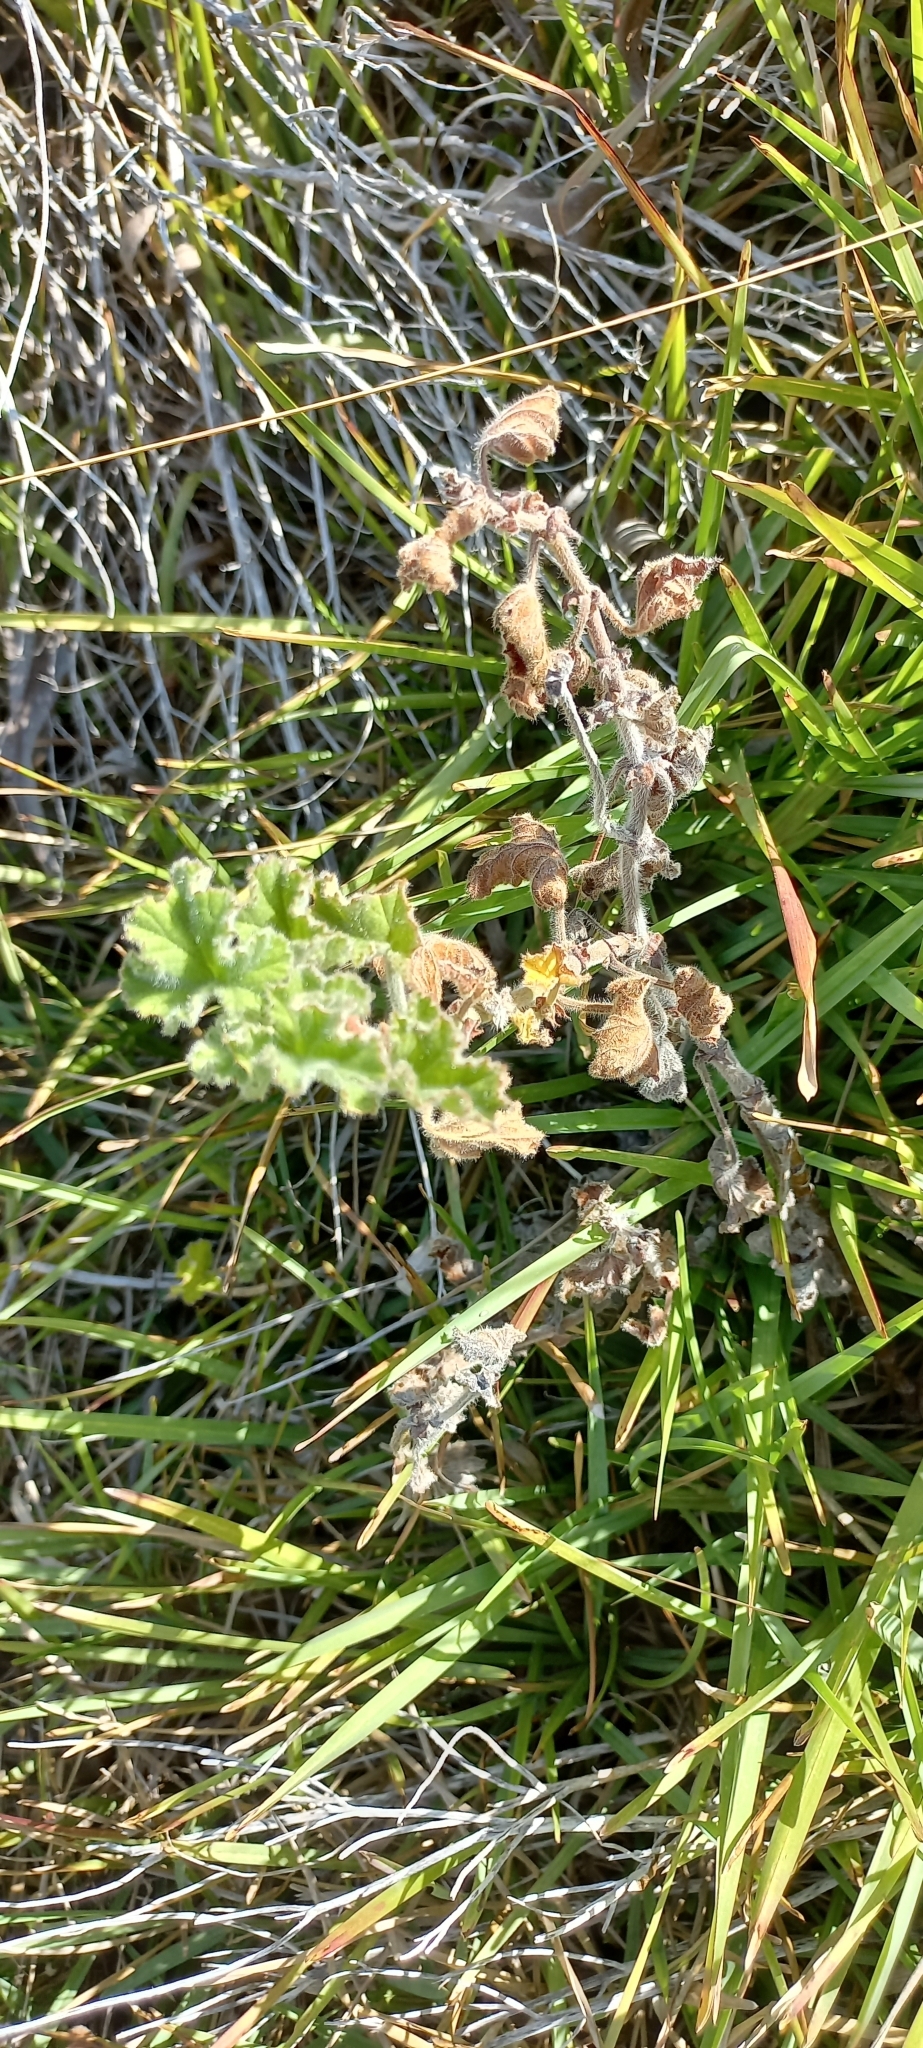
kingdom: Plantae
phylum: Tracheophyta
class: Magnoliopsida
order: Geraniales
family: Geraniaceae
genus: Pelargonium
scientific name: Pelargonium capitatum
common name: Rose scented geranium
